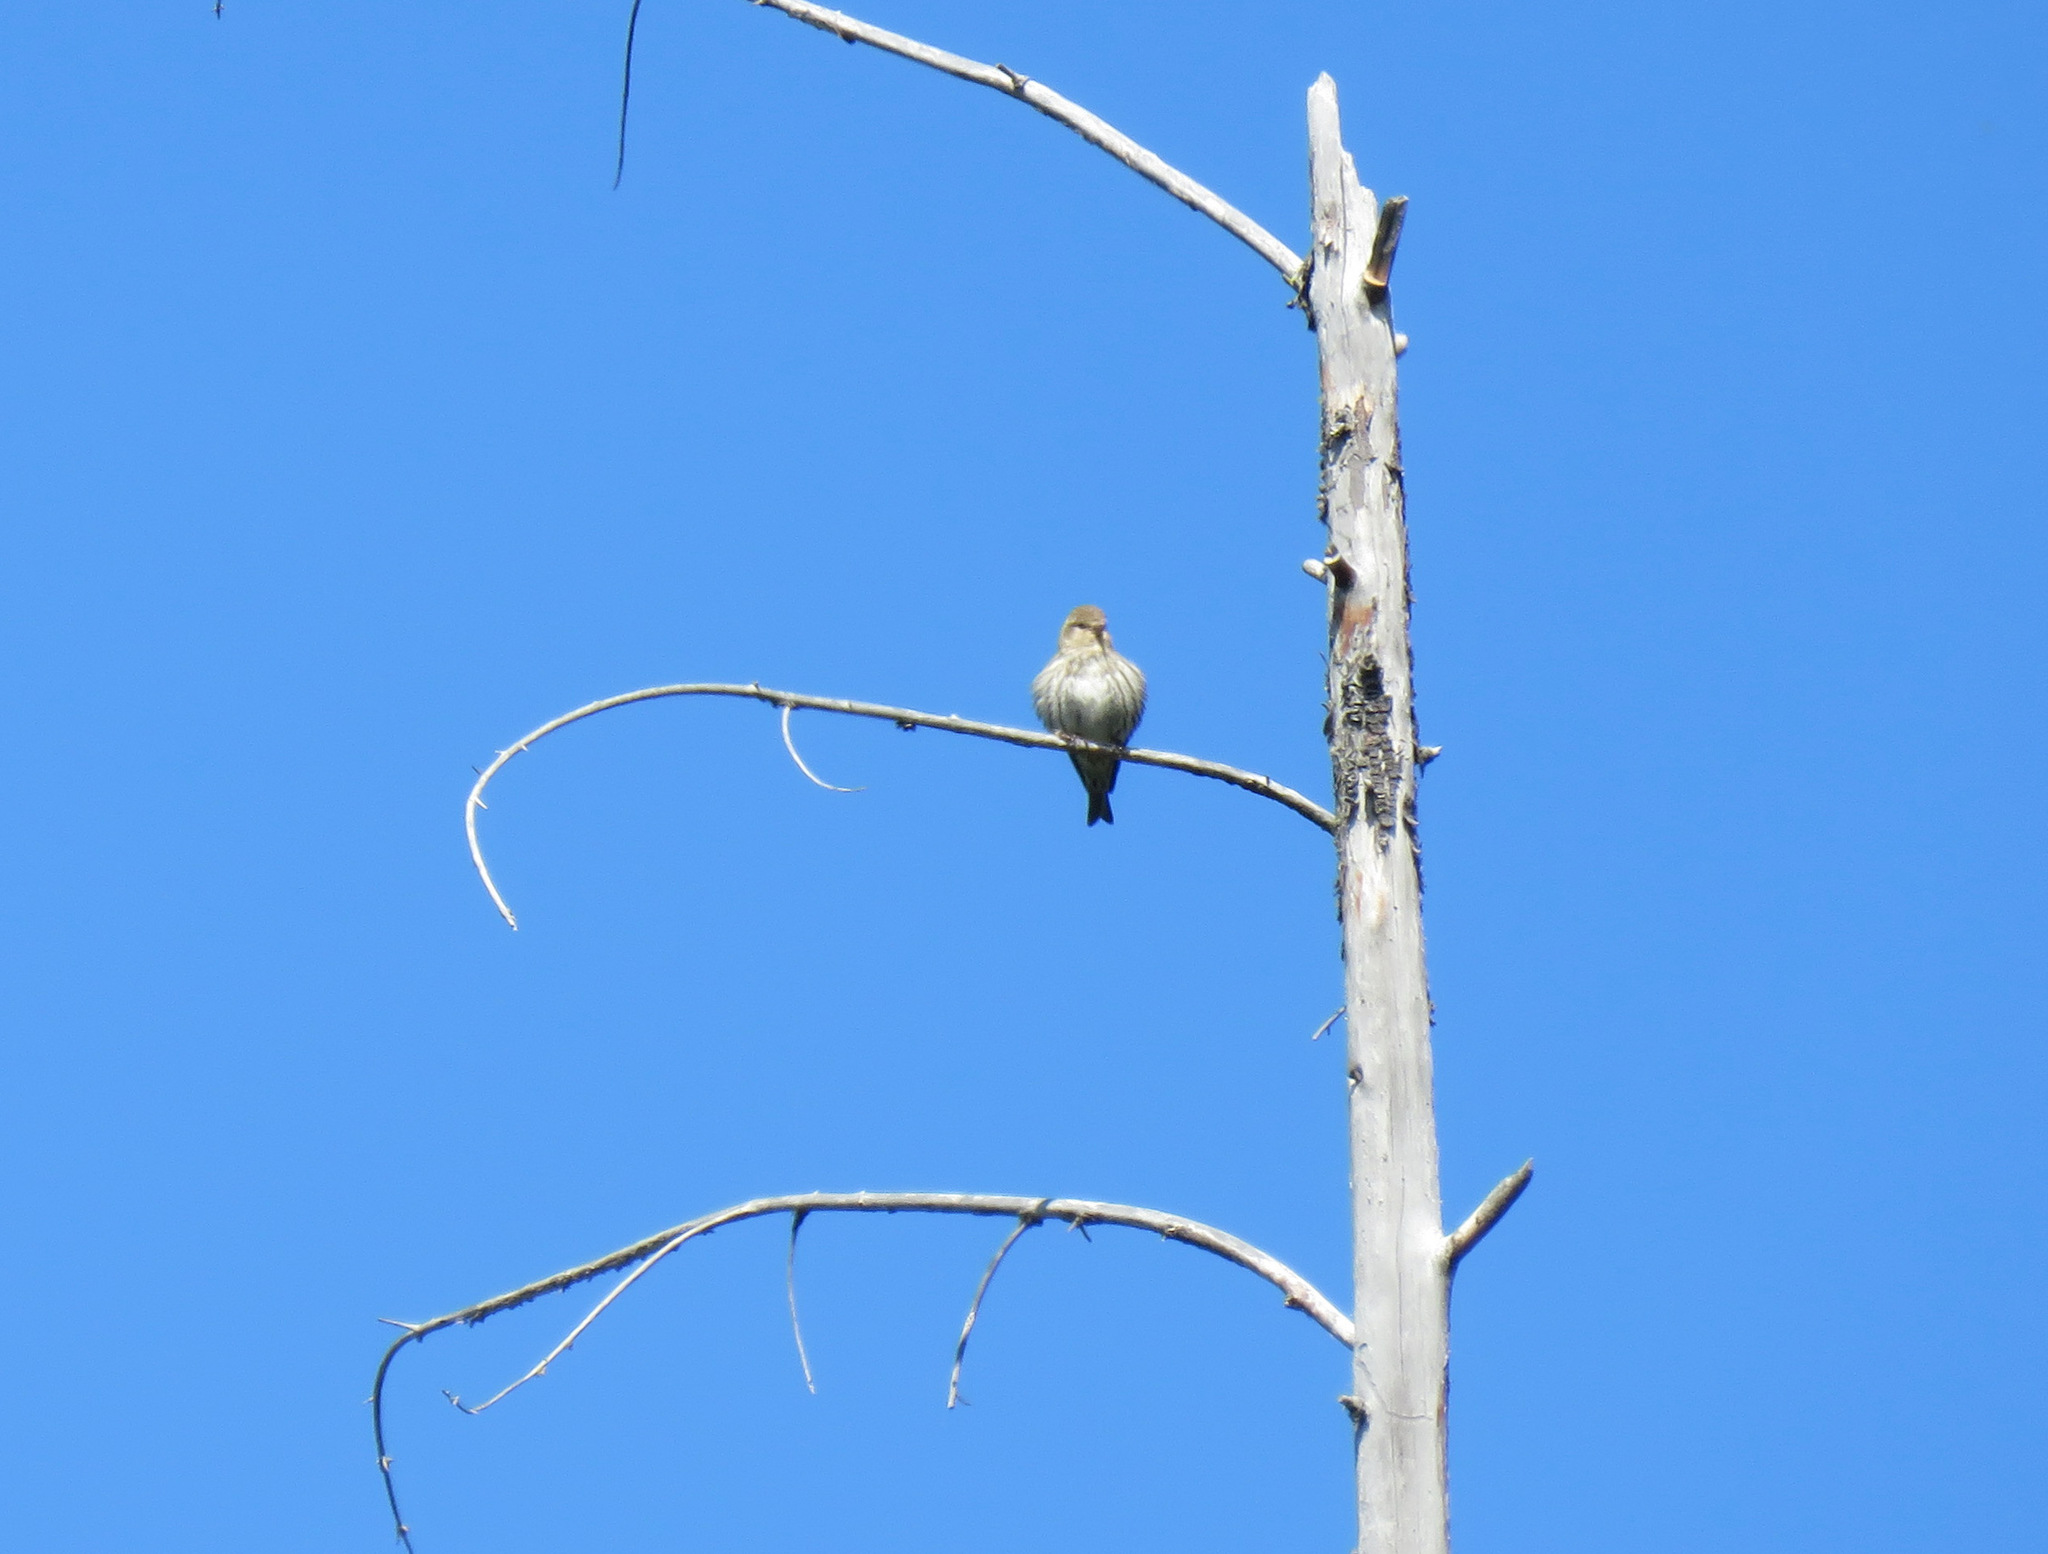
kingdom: Animalia
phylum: Chordata
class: Aves
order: Passeriformes
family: Fringillidae
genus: Spinus
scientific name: Spinus pinus
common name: Pine siskin
